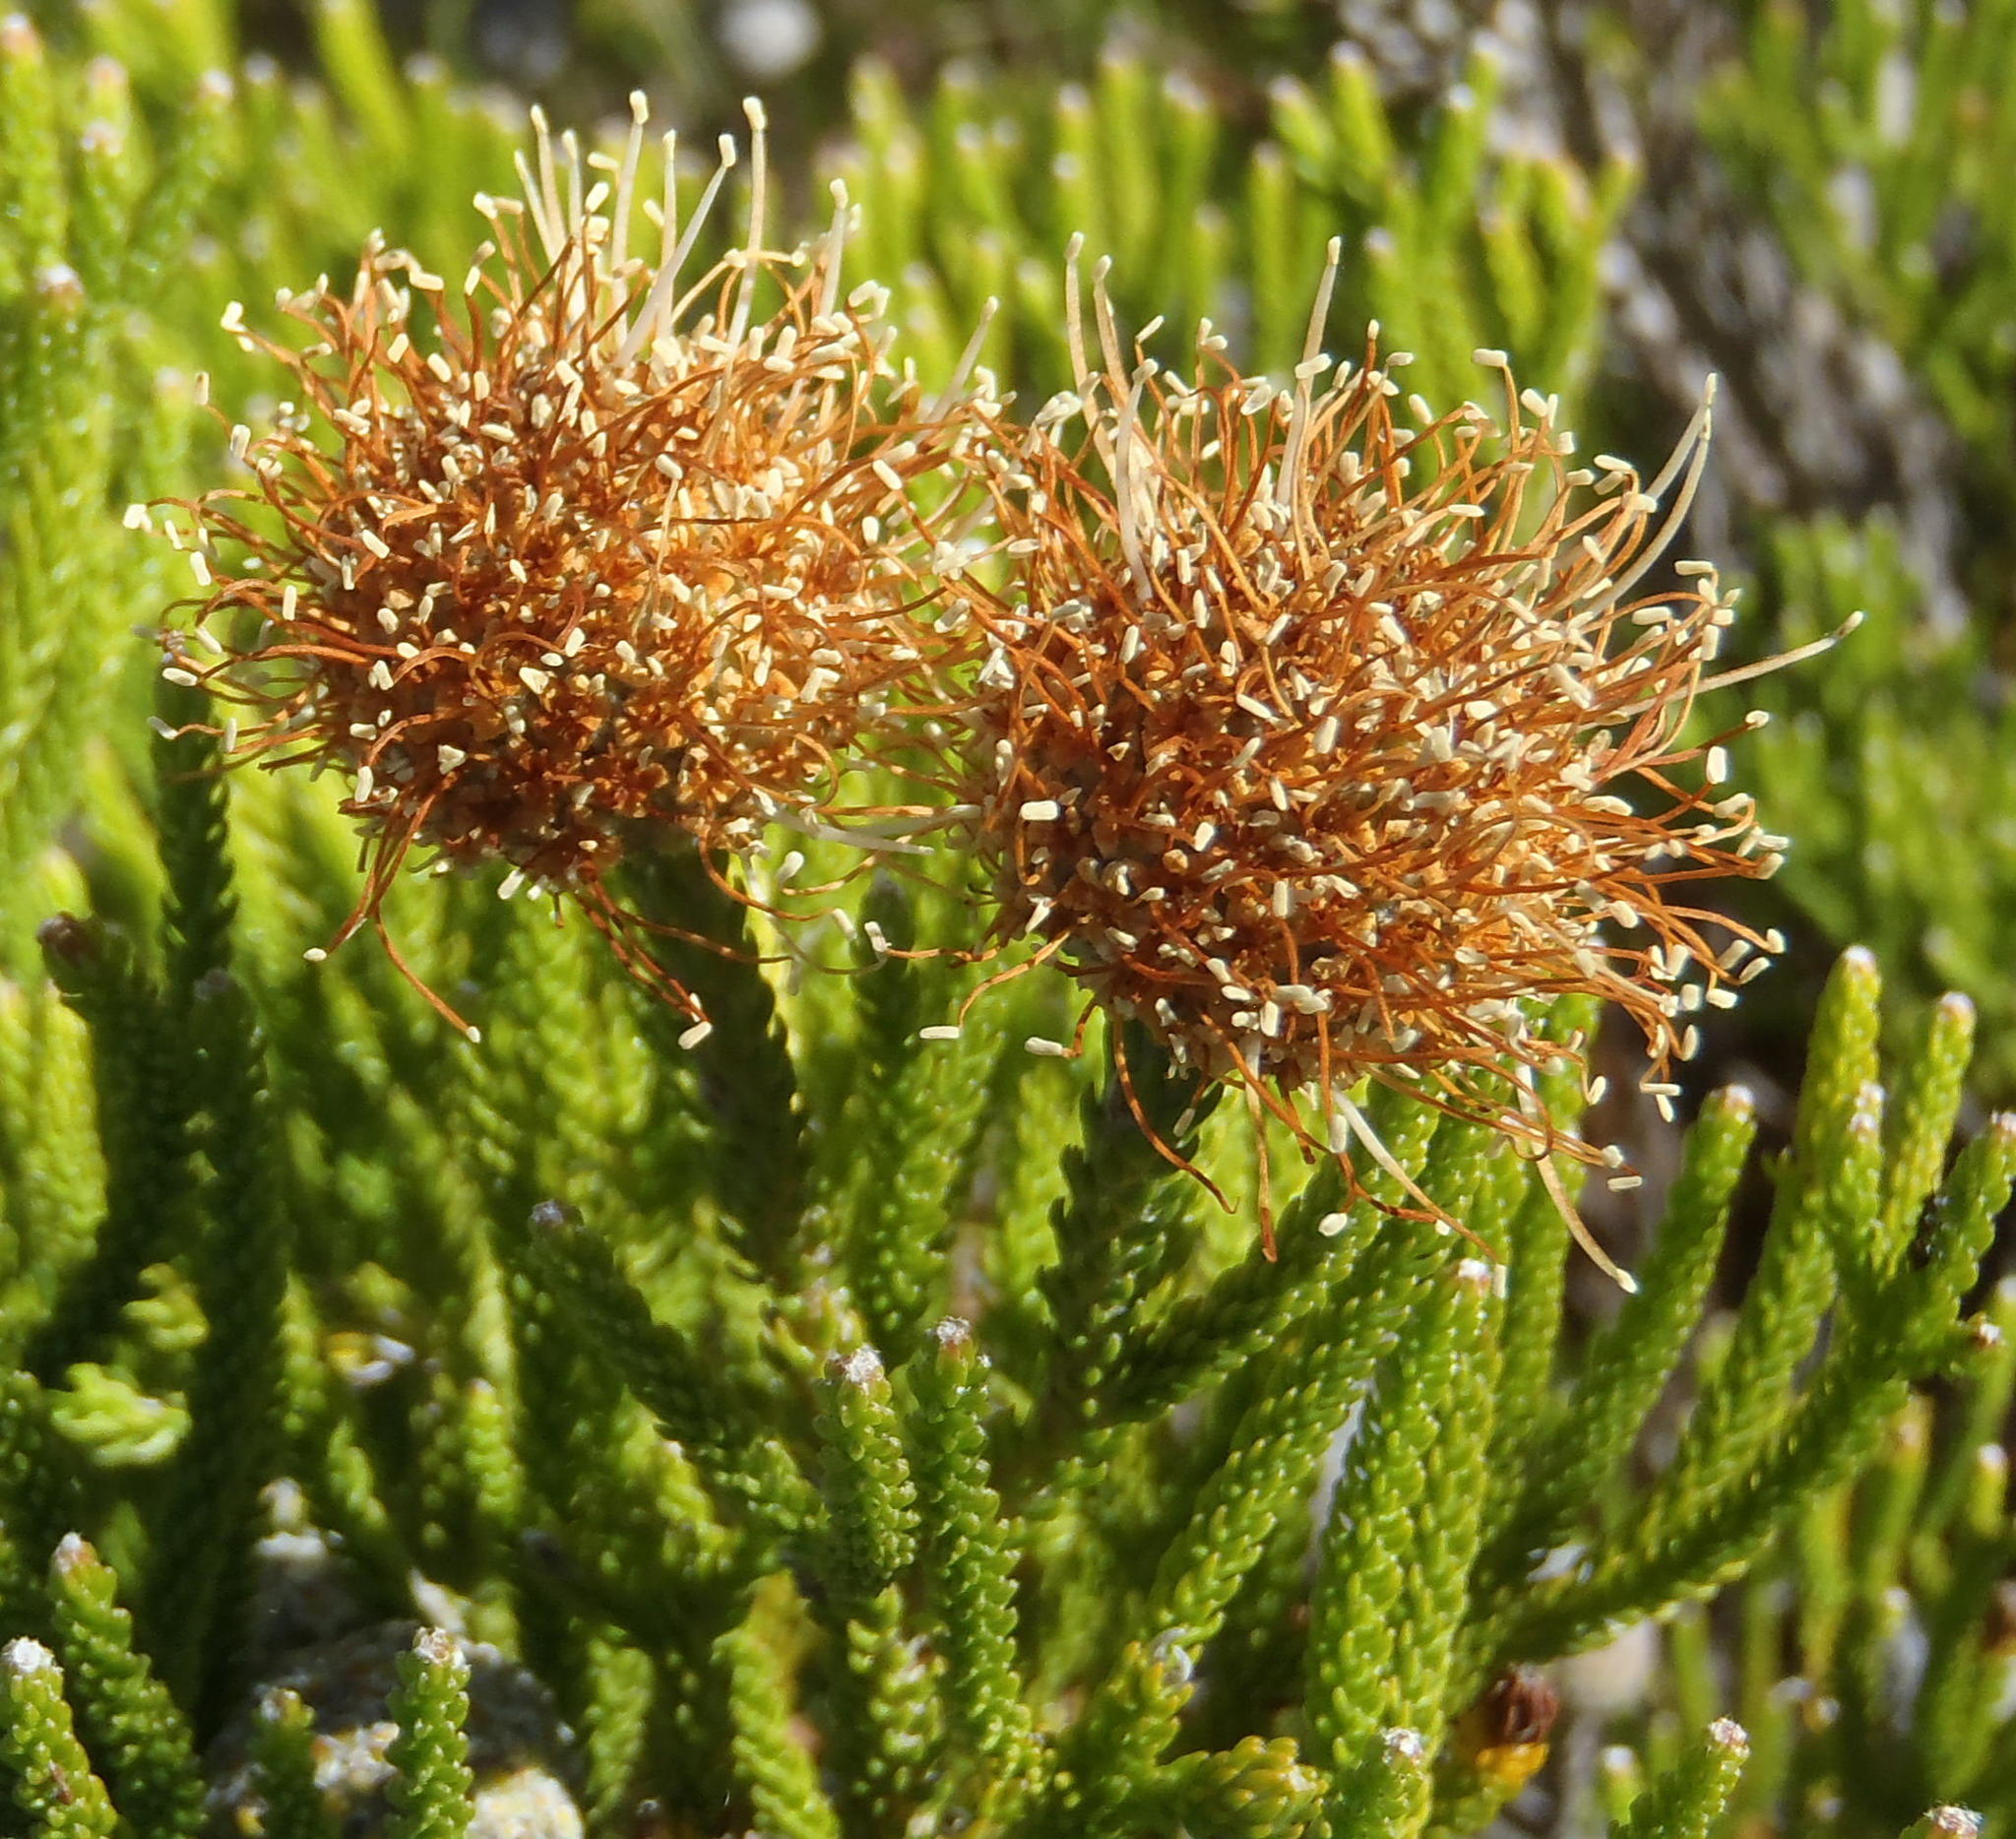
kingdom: Plantae
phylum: Tracheophyta
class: Magnoliopsida
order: Bruniales
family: Bruniaceae
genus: Brunia
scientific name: Brunia noduliflora
